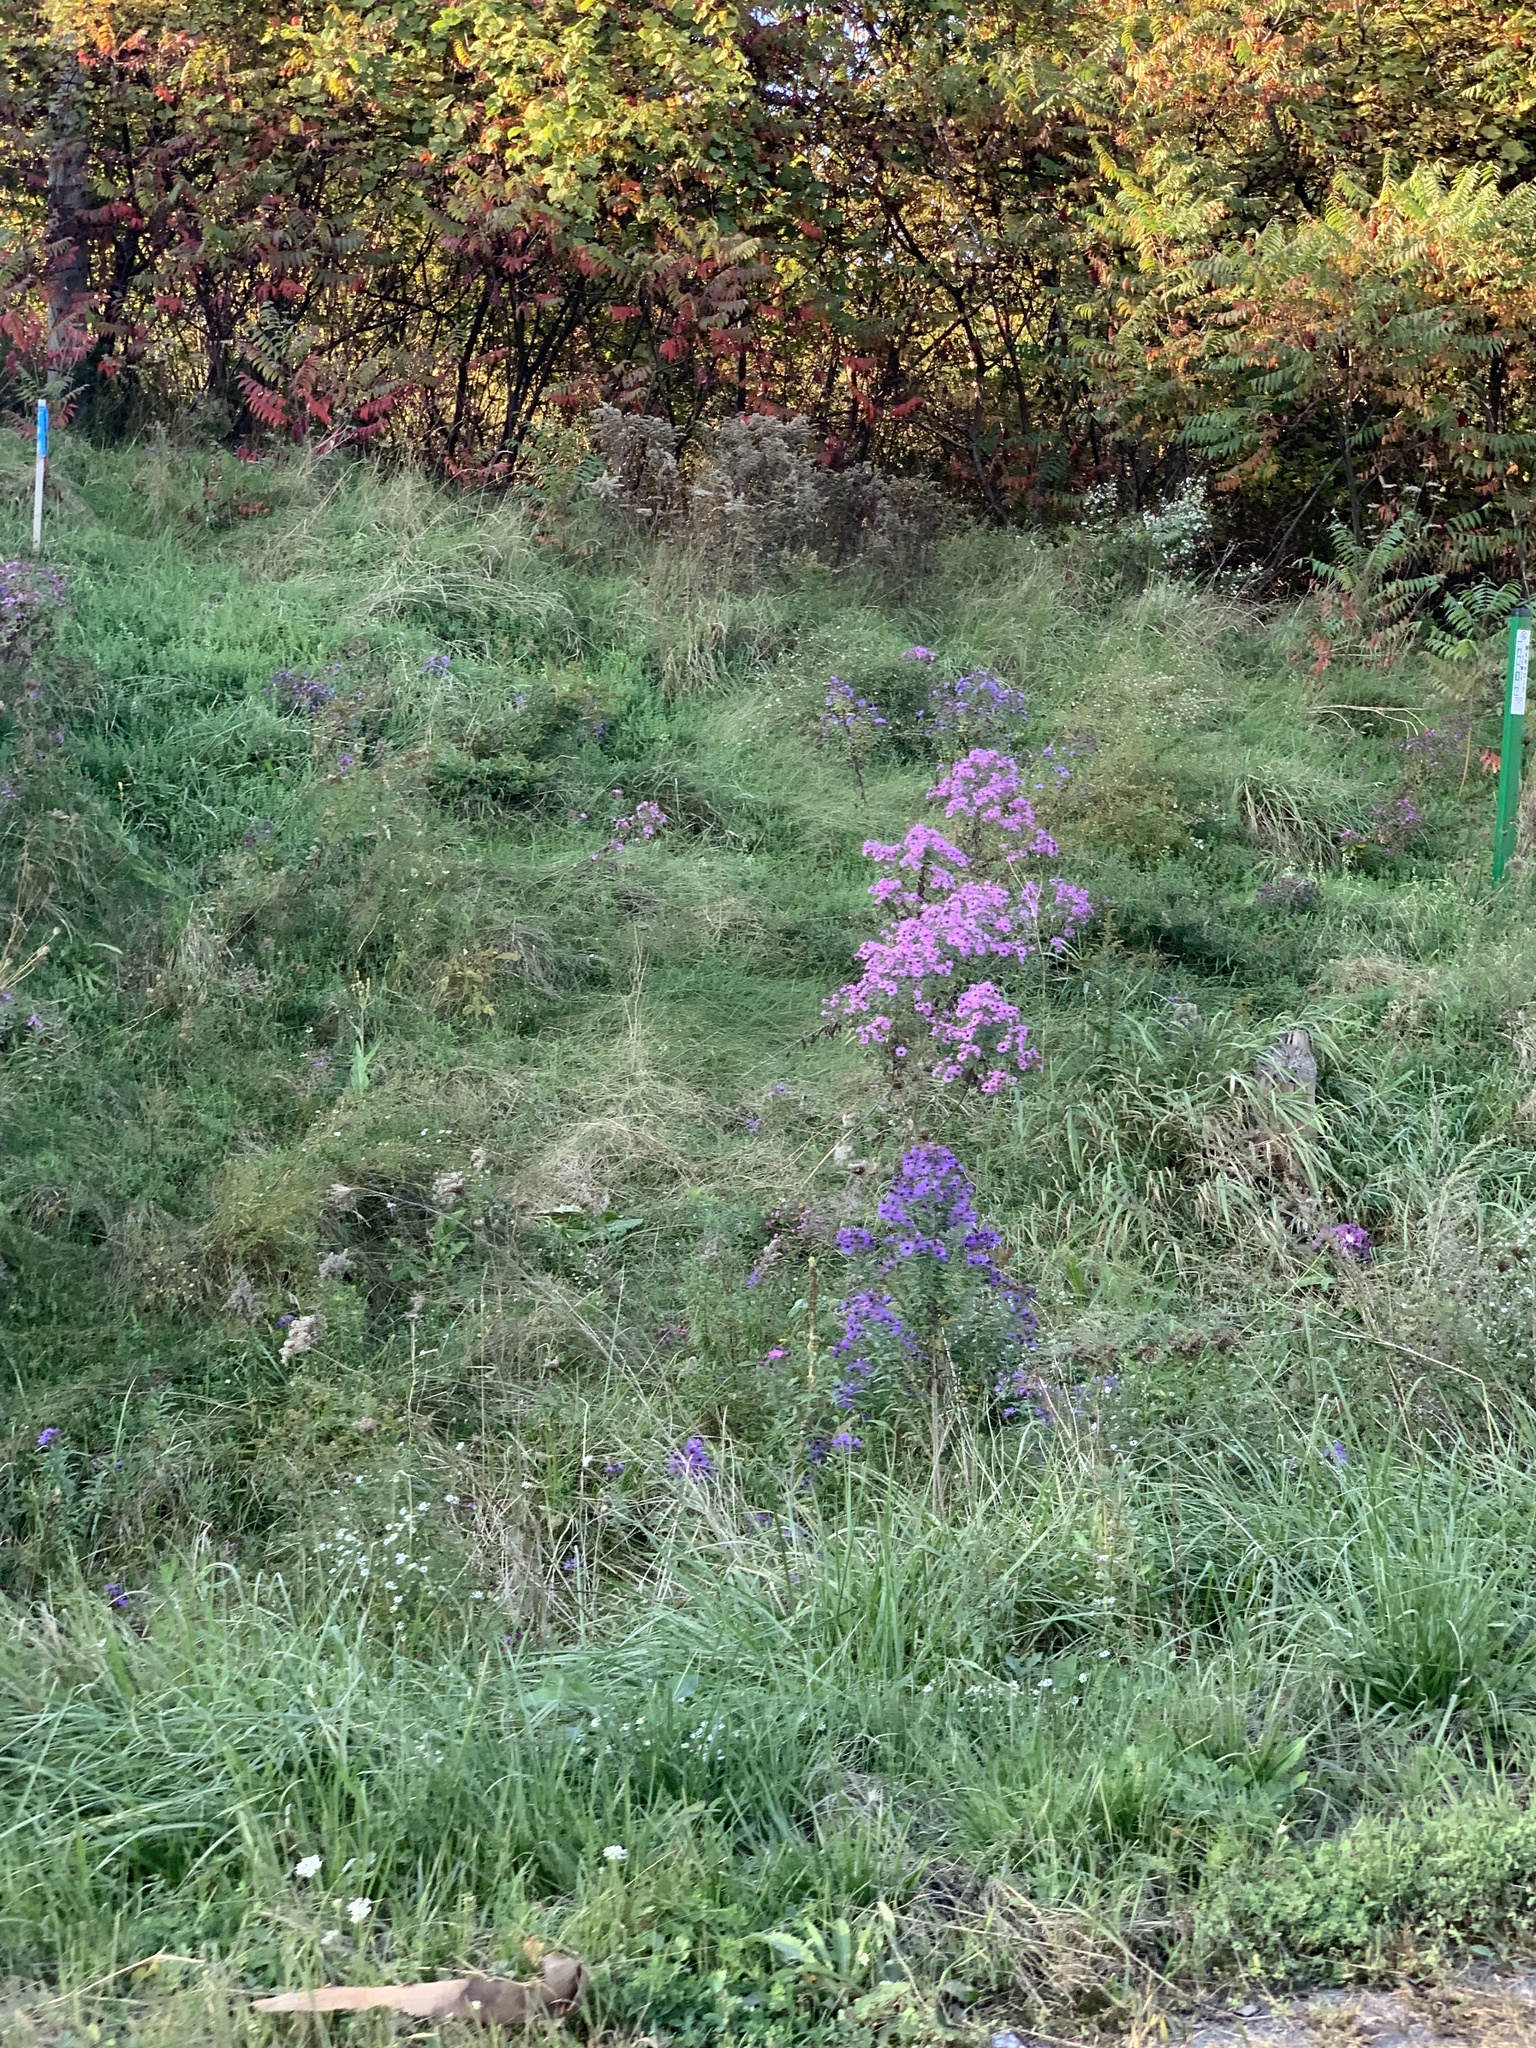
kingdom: Plantae
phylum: Tracheophyta
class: Magnoliopsida
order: Asterales
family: Asteraceae
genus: Symphyotrichum
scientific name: Symphyotrichum novae-angliae
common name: Michaelmas daisy
